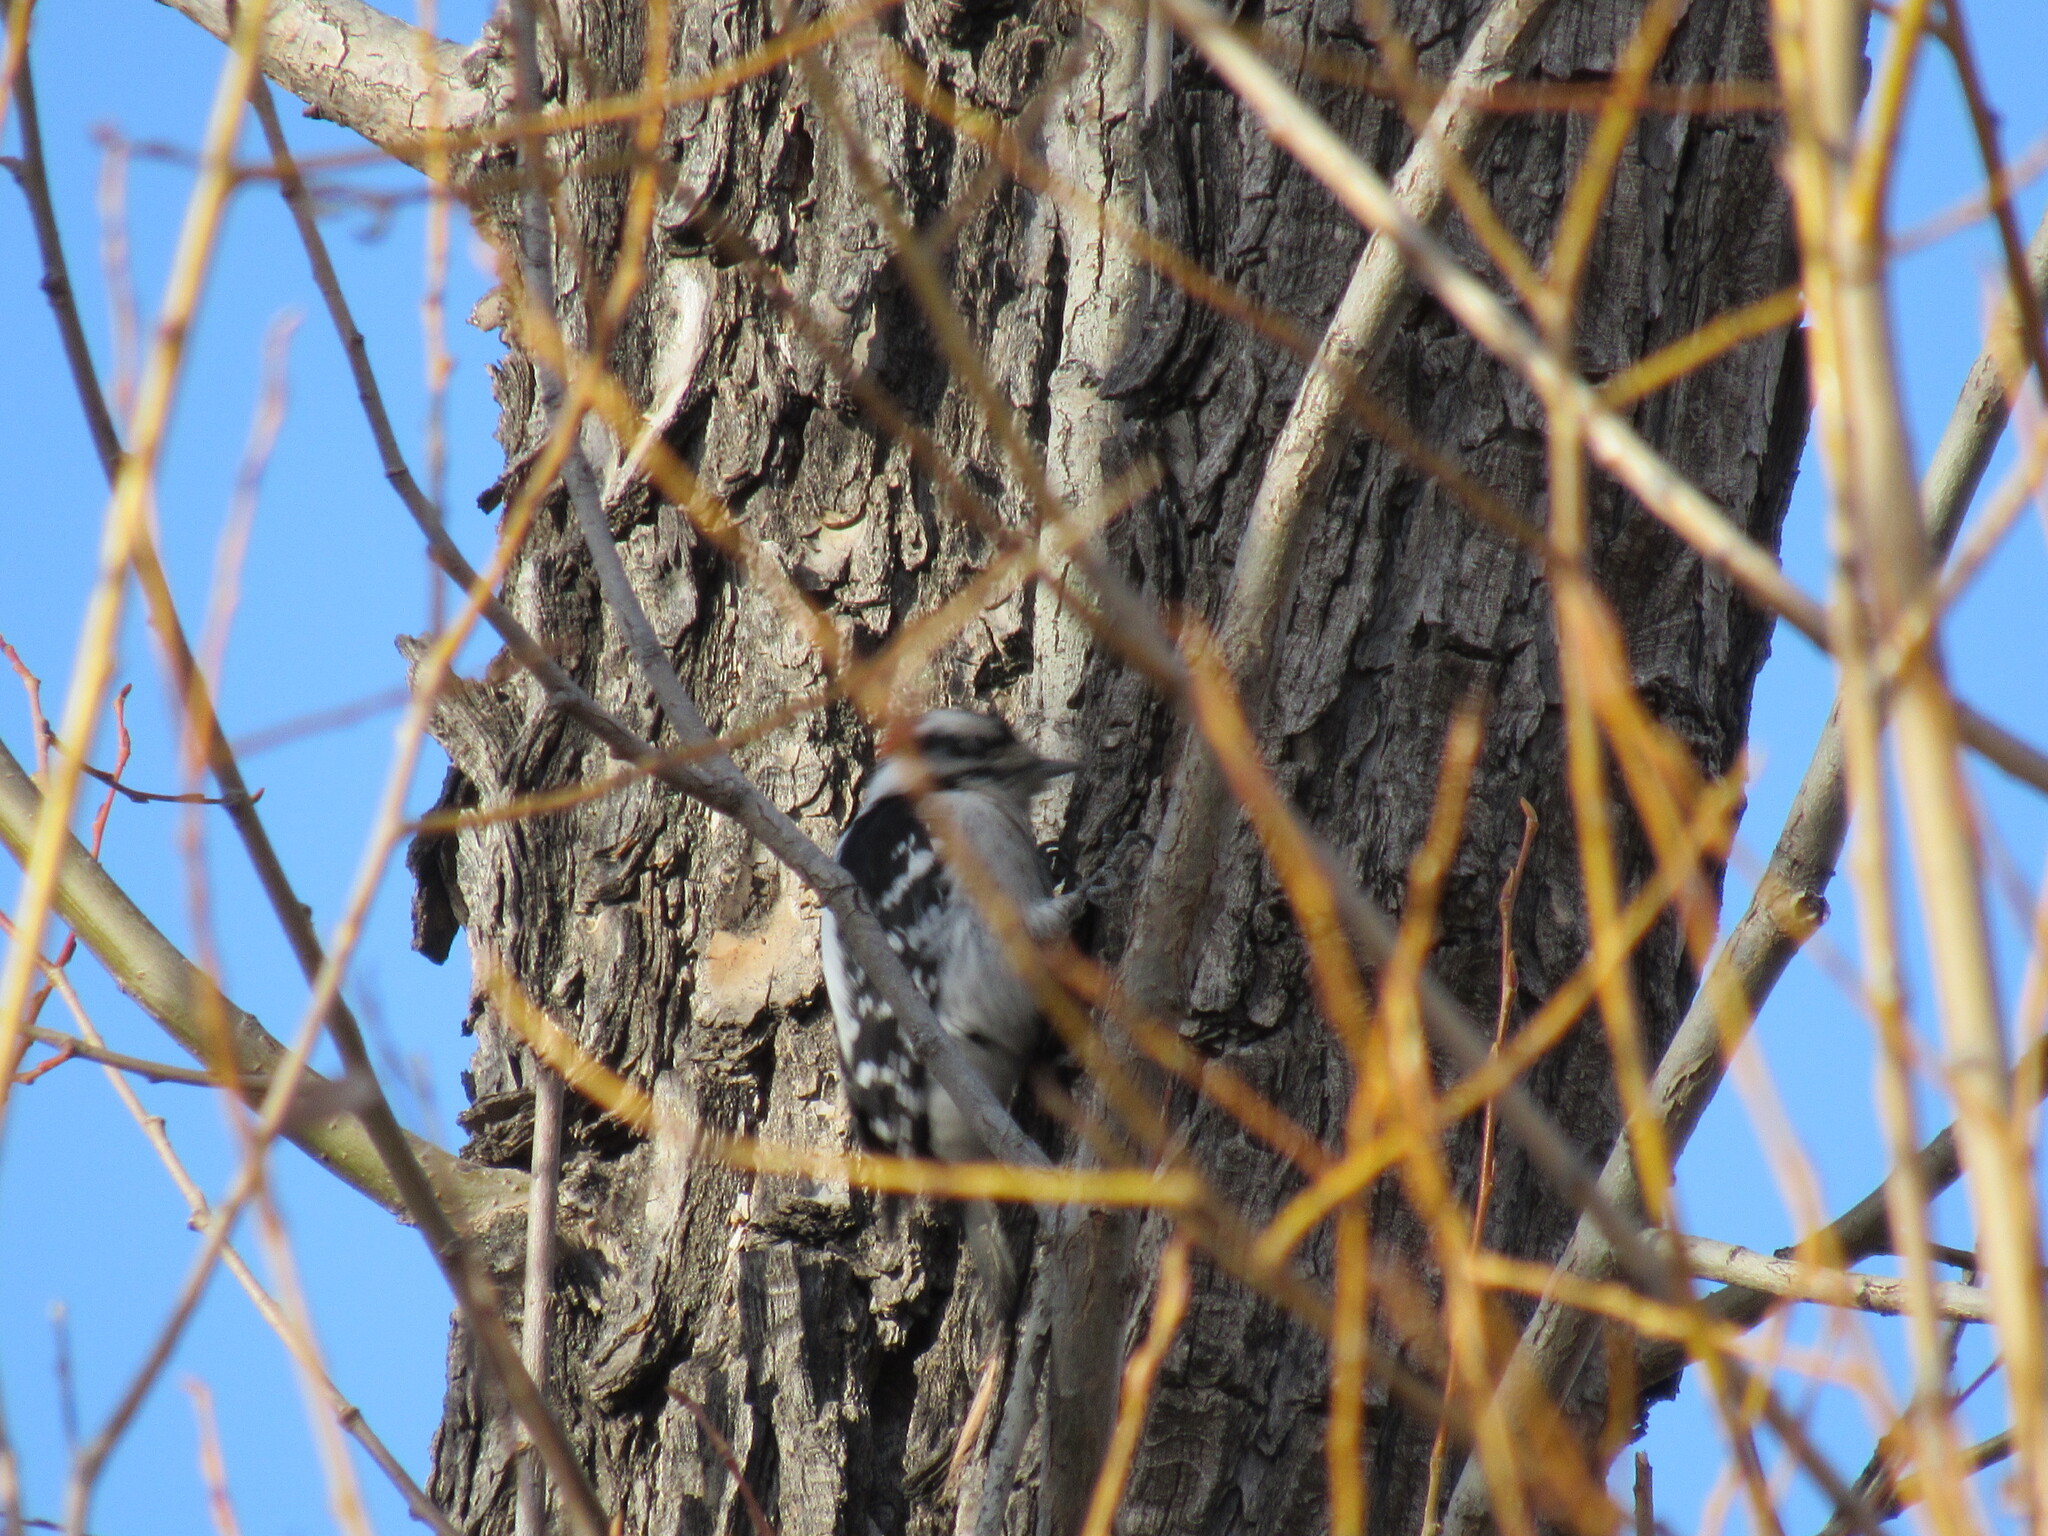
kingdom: Animalia
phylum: Chordata
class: Aves
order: Piciformes
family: Picidae
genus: Dryobates
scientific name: Dryobates pubescens
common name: Downy woodpecker
